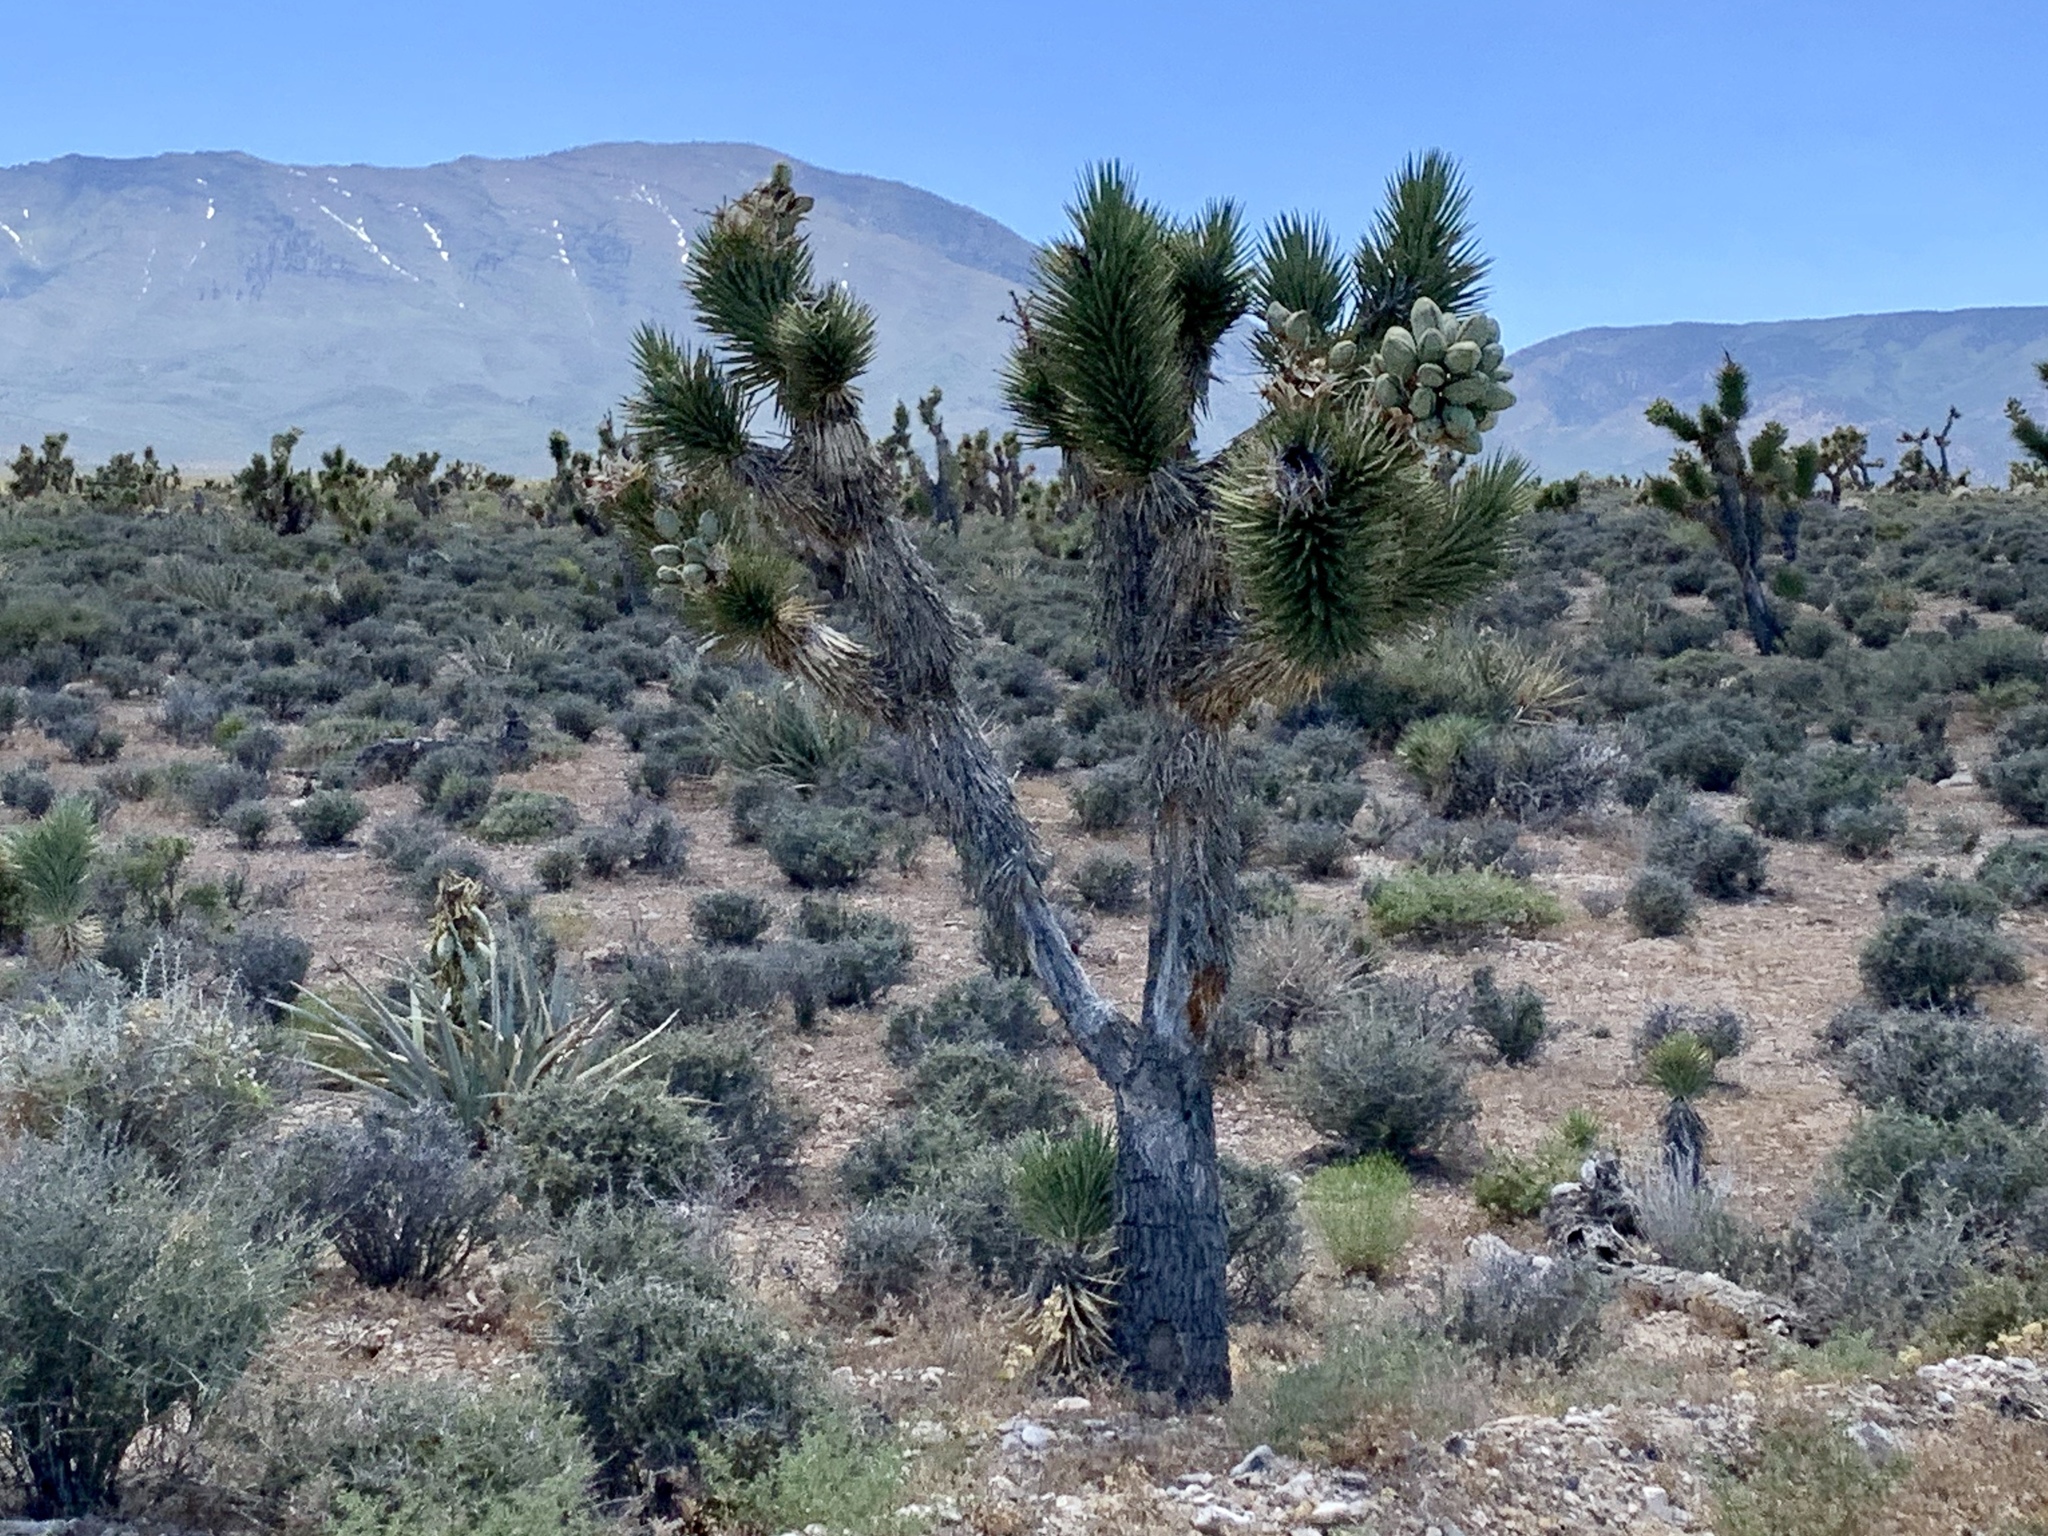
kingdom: Plantae
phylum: Tracheophyta
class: Liliopsida
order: Asparagales
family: Asparagaceae
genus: Yucca
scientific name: Yucca brevifolia
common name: Joshua tree
